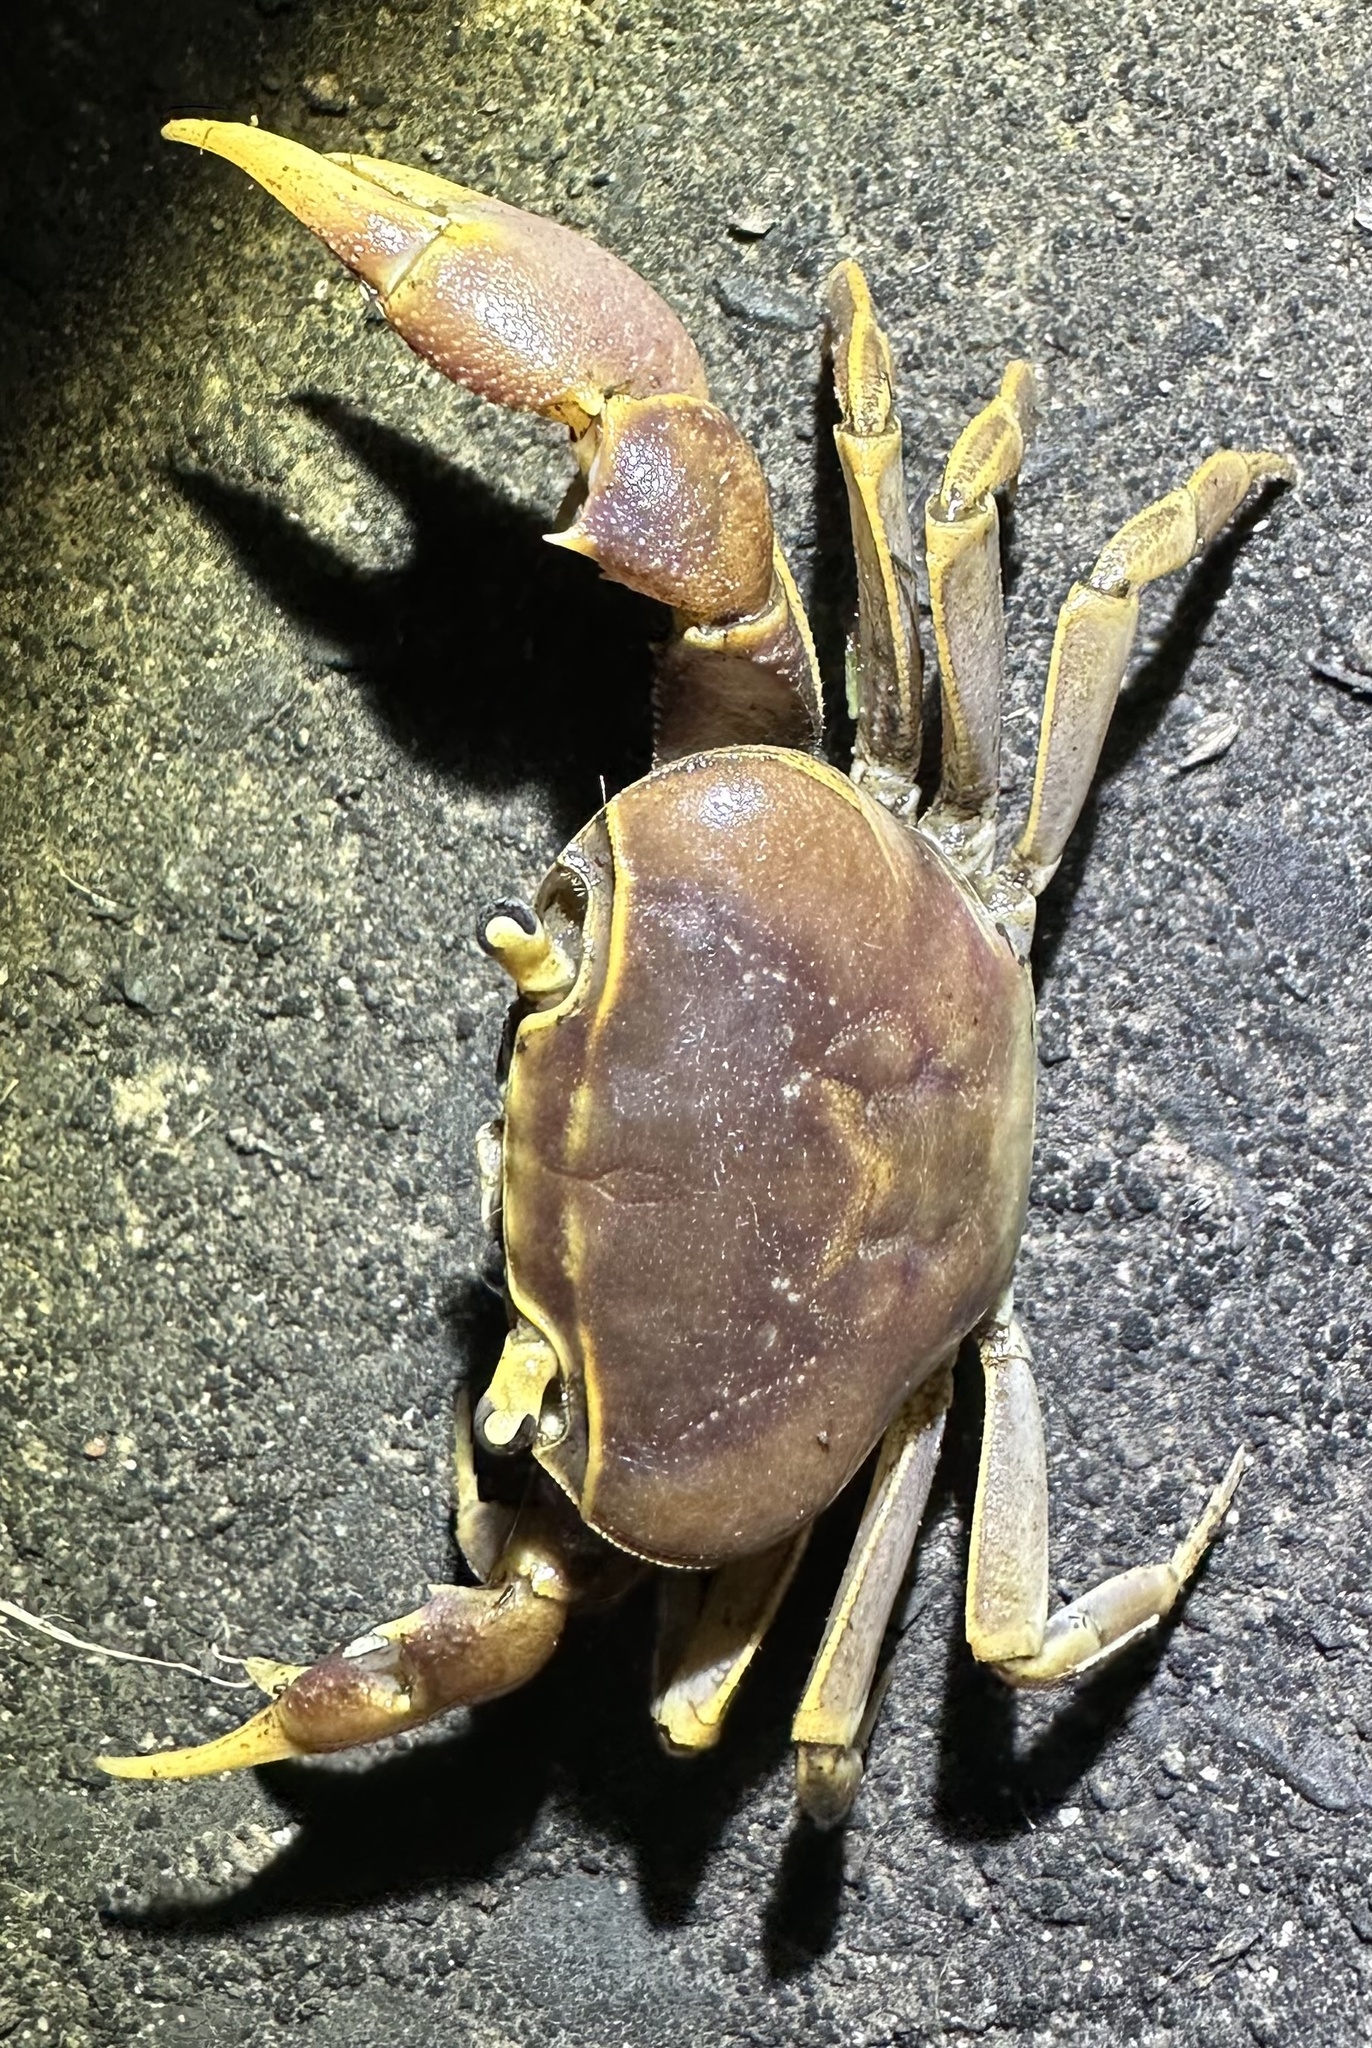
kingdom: Animalia
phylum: Arthropoda
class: Malacostraca
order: Decapoda
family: Potamonautidae
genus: Potamonautes
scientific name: Potamonautes isimangaliso
